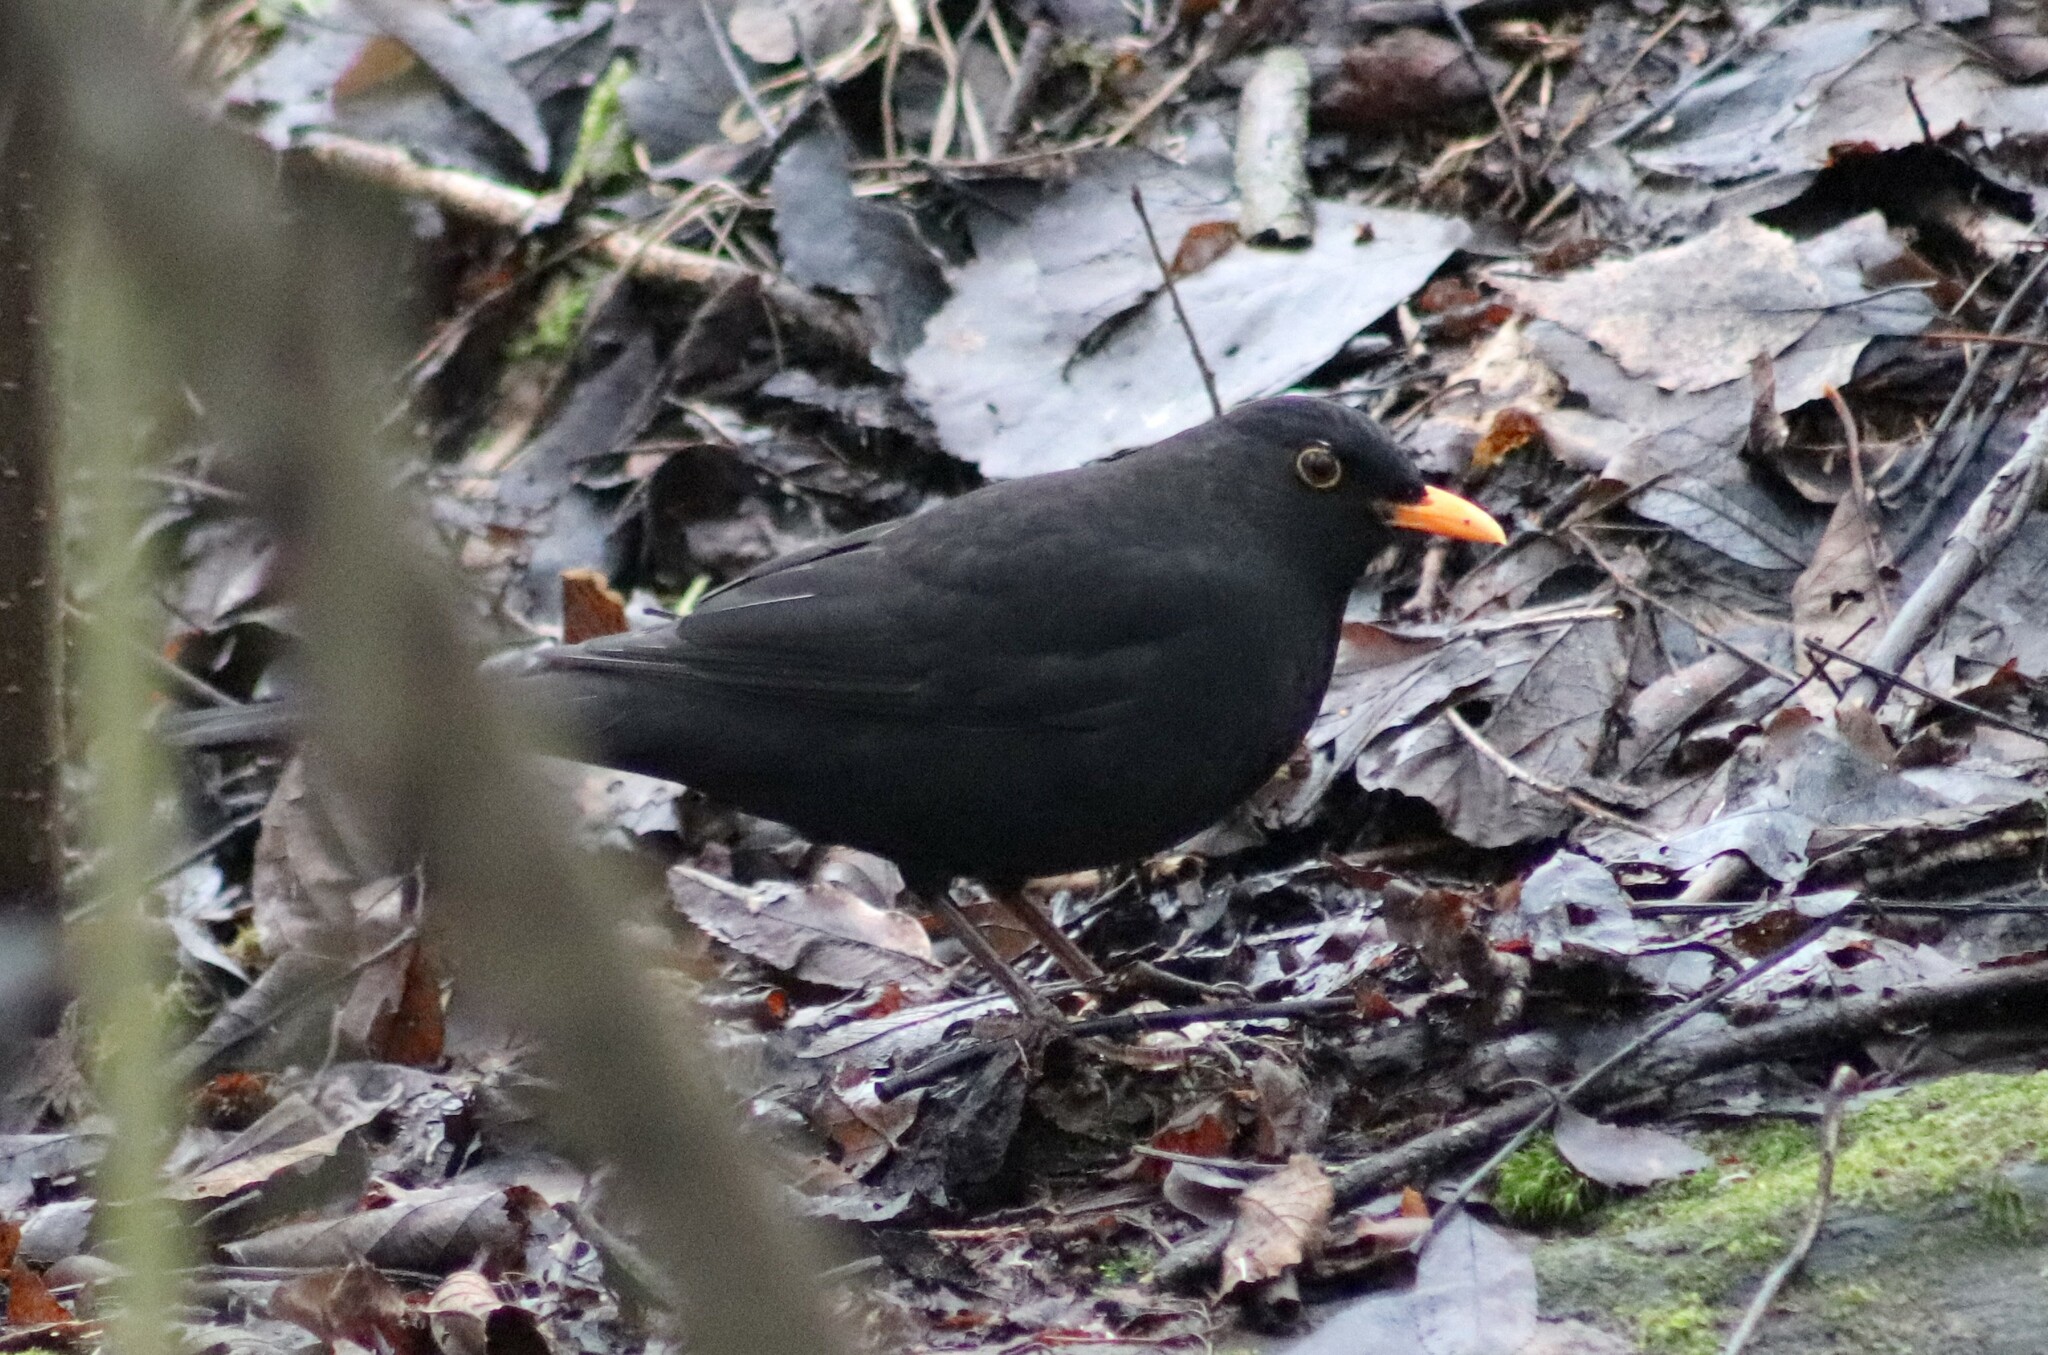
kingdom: Animalia
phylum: Chordata
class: Aves
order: Passeriformes
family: Turdidae
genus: Turdus
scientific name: Turdus merula
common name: Common blackbird
